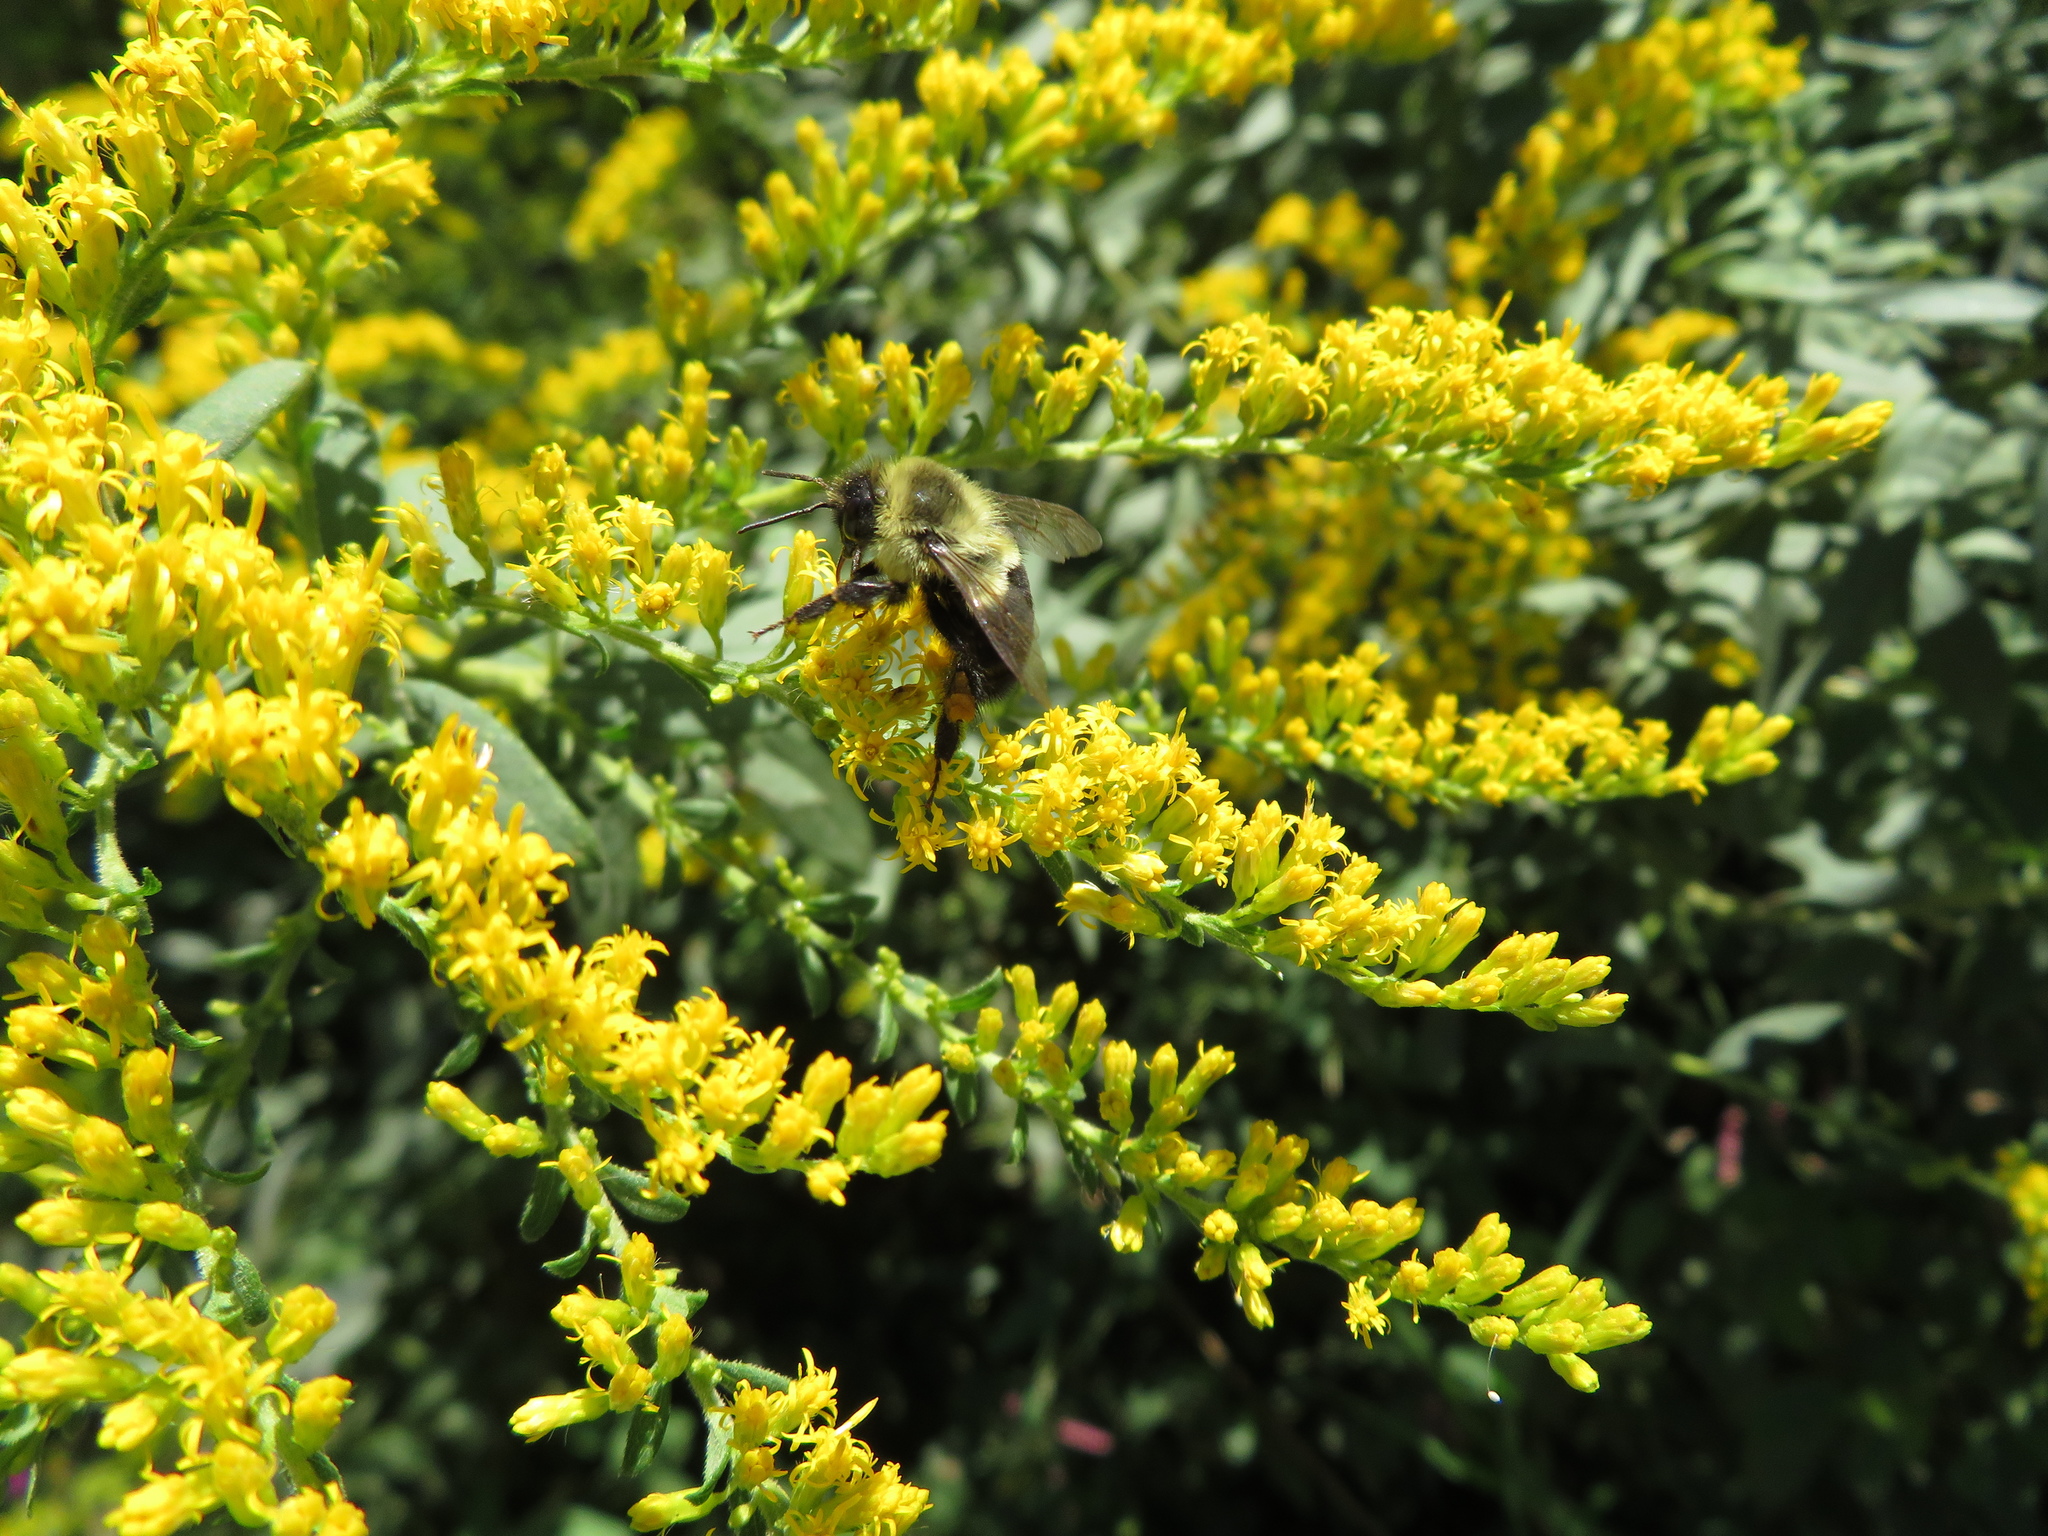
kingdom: Animalia
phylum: Arthropoda
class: Insecta
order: Hymenoptera
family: Apidae
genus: Bombus
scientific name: Bombus impatiens
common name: Common eastern bumble bee
